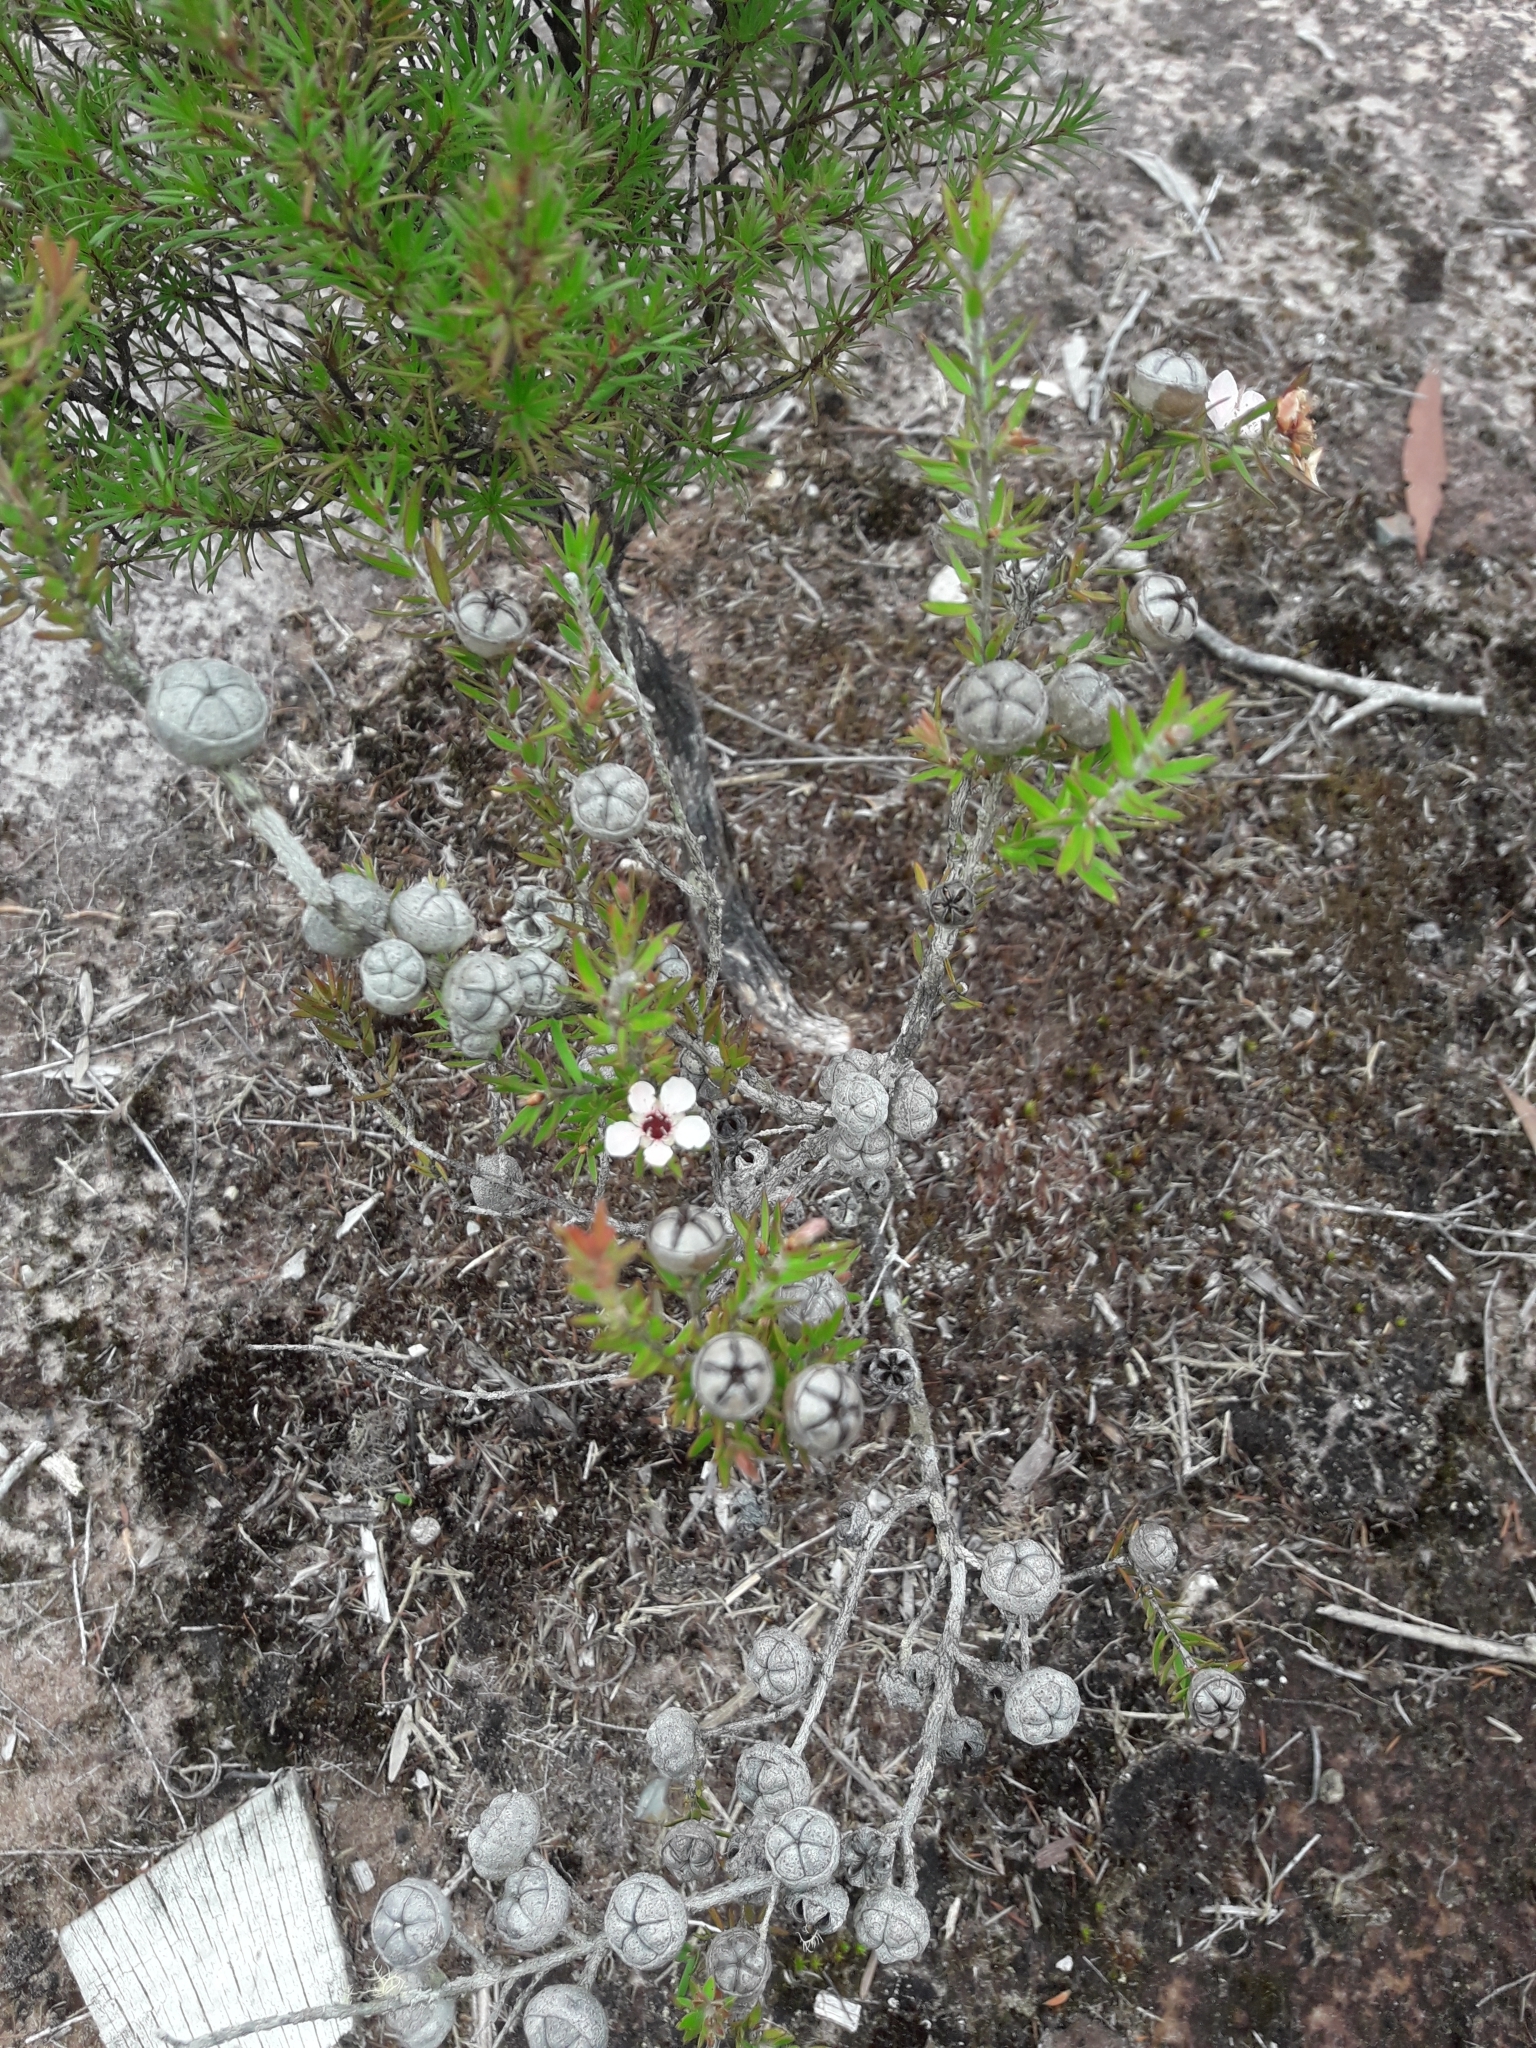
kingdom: Plantae
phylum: Tracheophyta
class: Magnoliopsida
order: Myrtales
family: Myrtaceae
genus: Leptospermum
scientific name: Leptospermum scoparium
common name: Broom tea-tree
